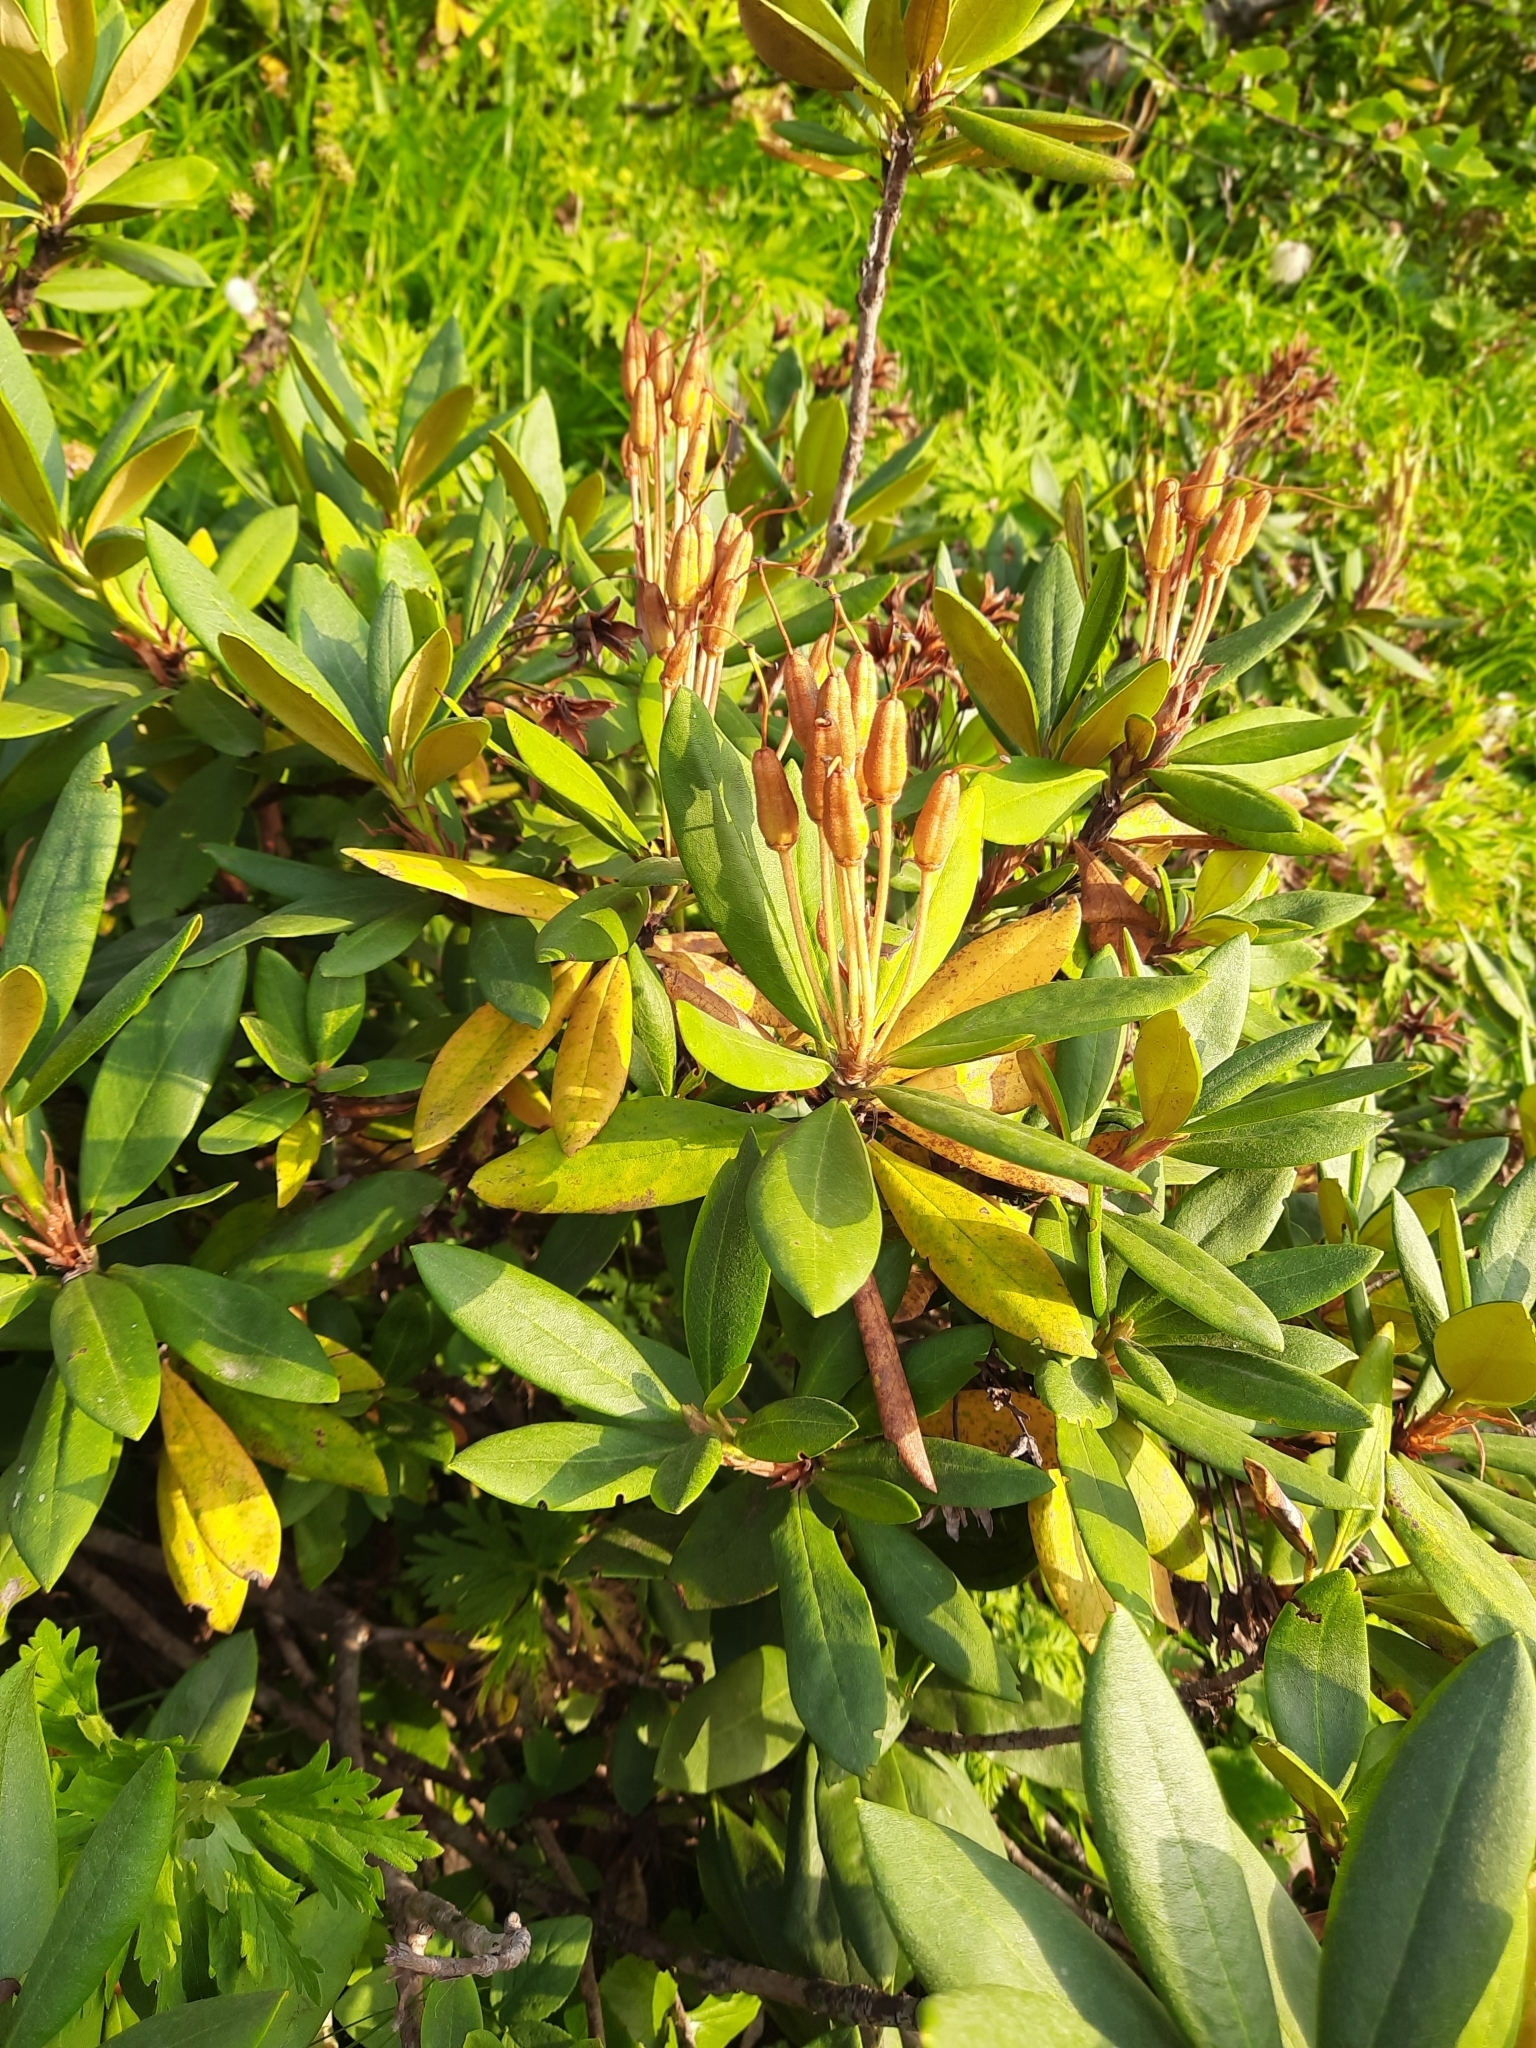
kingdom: Plantae
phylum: Tracheophyta
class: Magnoliopsida
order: Ericales
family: Ericaceae
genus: Rhododendron
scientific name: Rhododendron caucasicum
